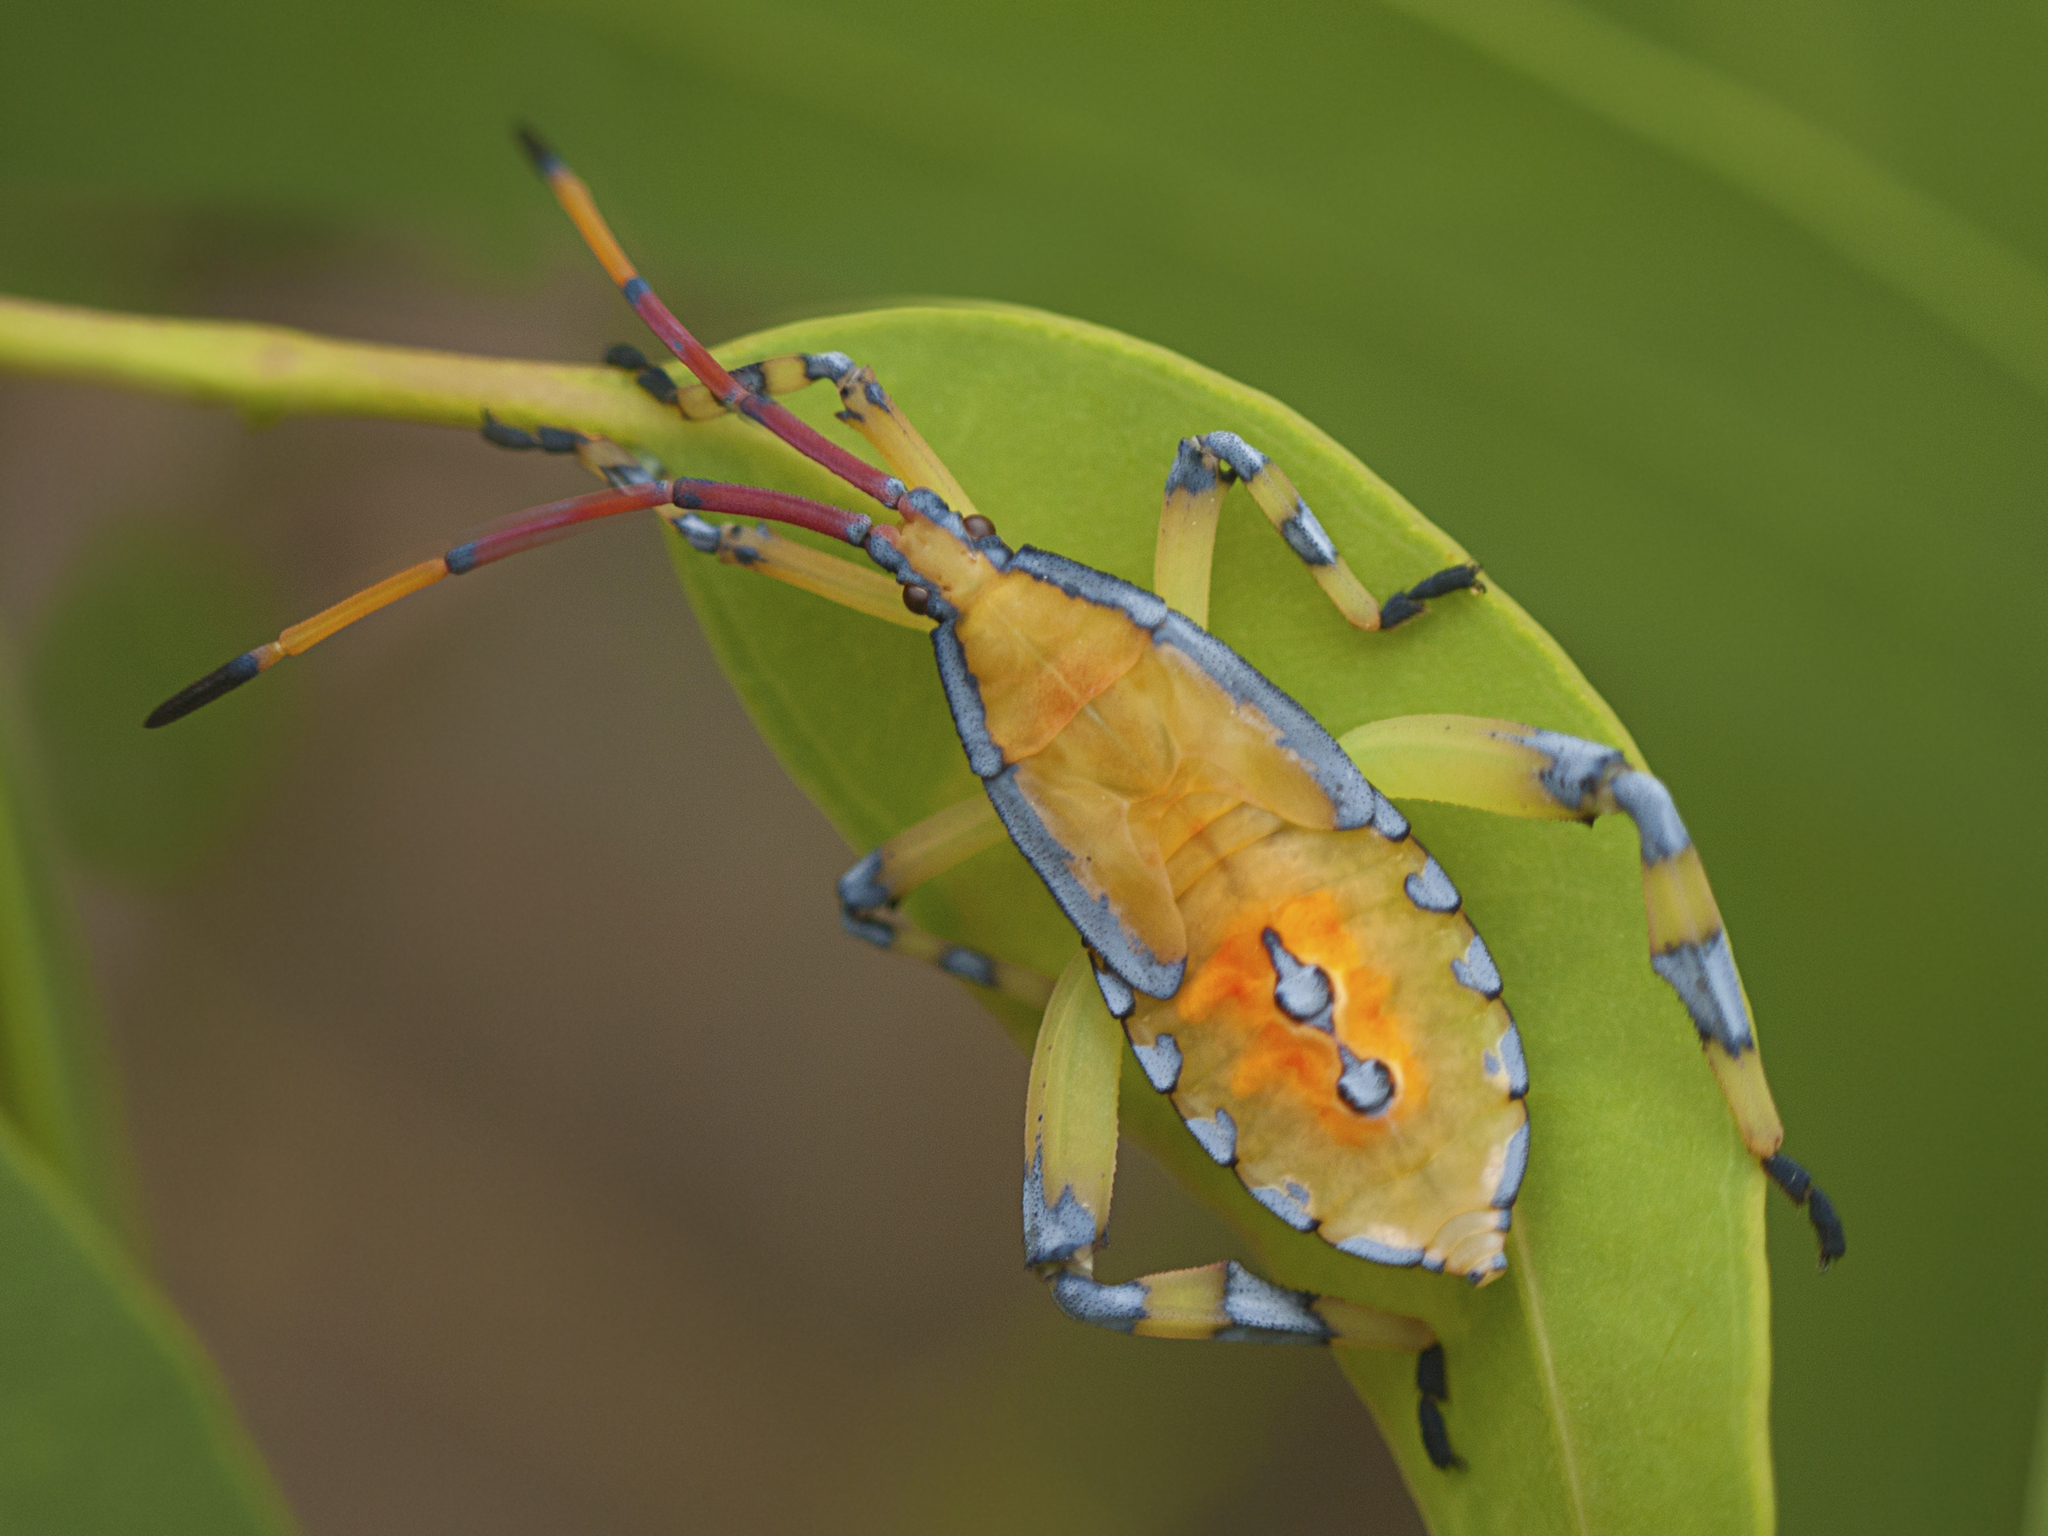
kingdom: Animalia
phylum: Arthropoda
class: Insecta
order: Hemiptera
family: Coreidae
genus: Amorbus
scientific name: Amorbus alternatus
